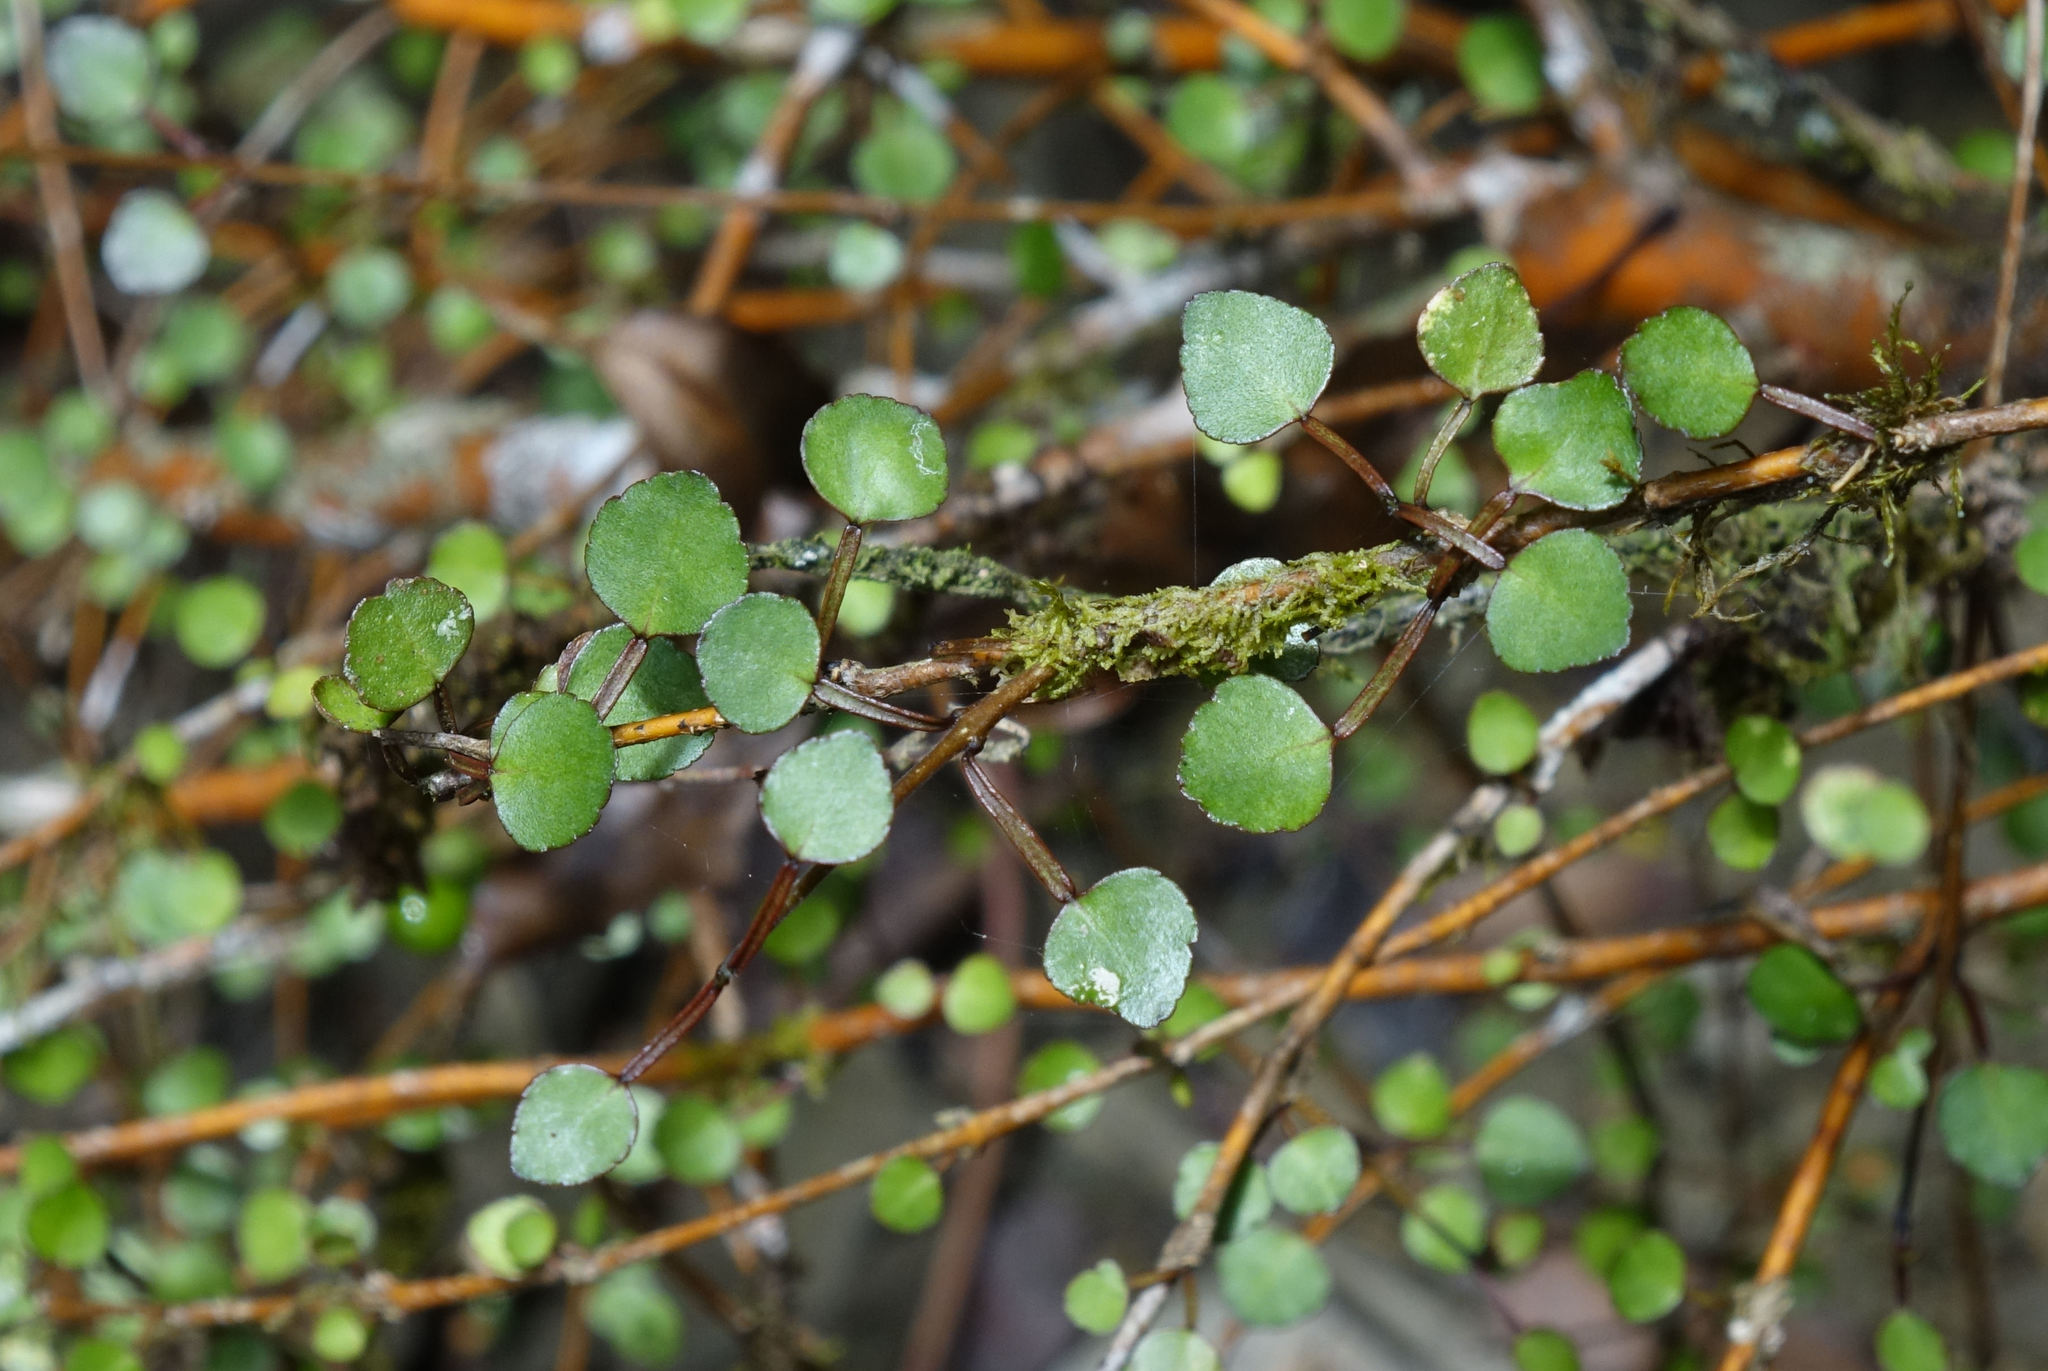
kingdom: Plantae
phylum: Tracheophyta
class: Magnoliopsida
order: Sapindales
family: Rutaceae
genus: Melicope
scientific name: Melicope simplex
